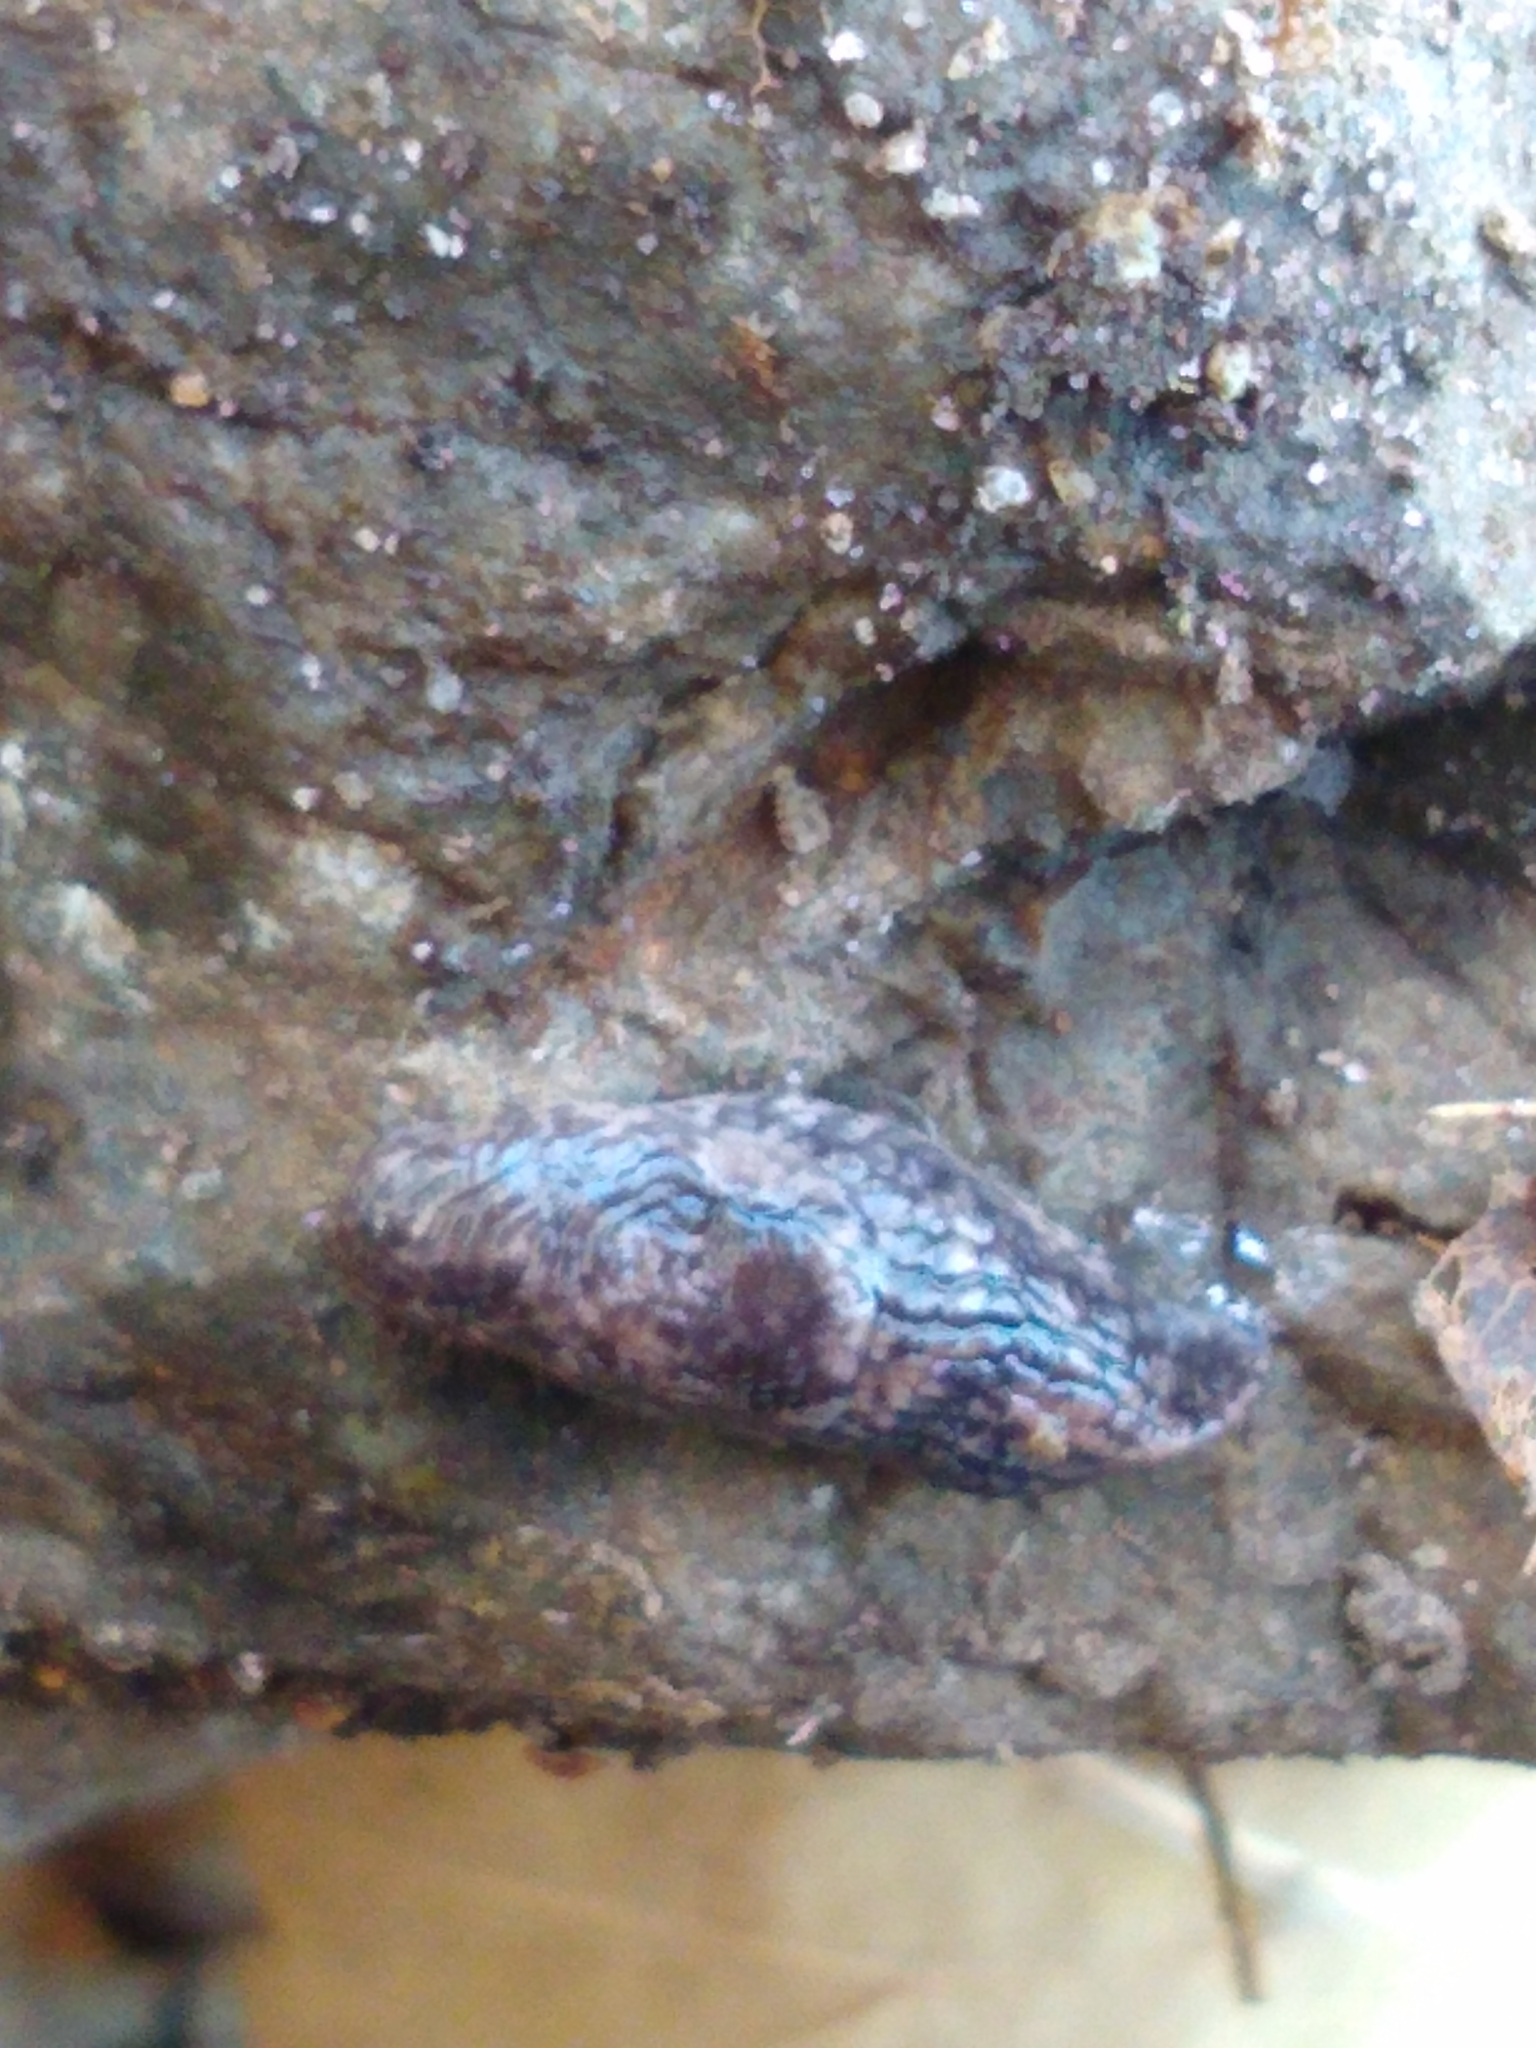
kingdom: Animalia
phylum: Mollusca
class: Gastropoda
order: Stylommatophora
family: Agriolimacidae
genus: Deroceras
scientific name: Deroceras reticulatum
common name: Gray field slug
